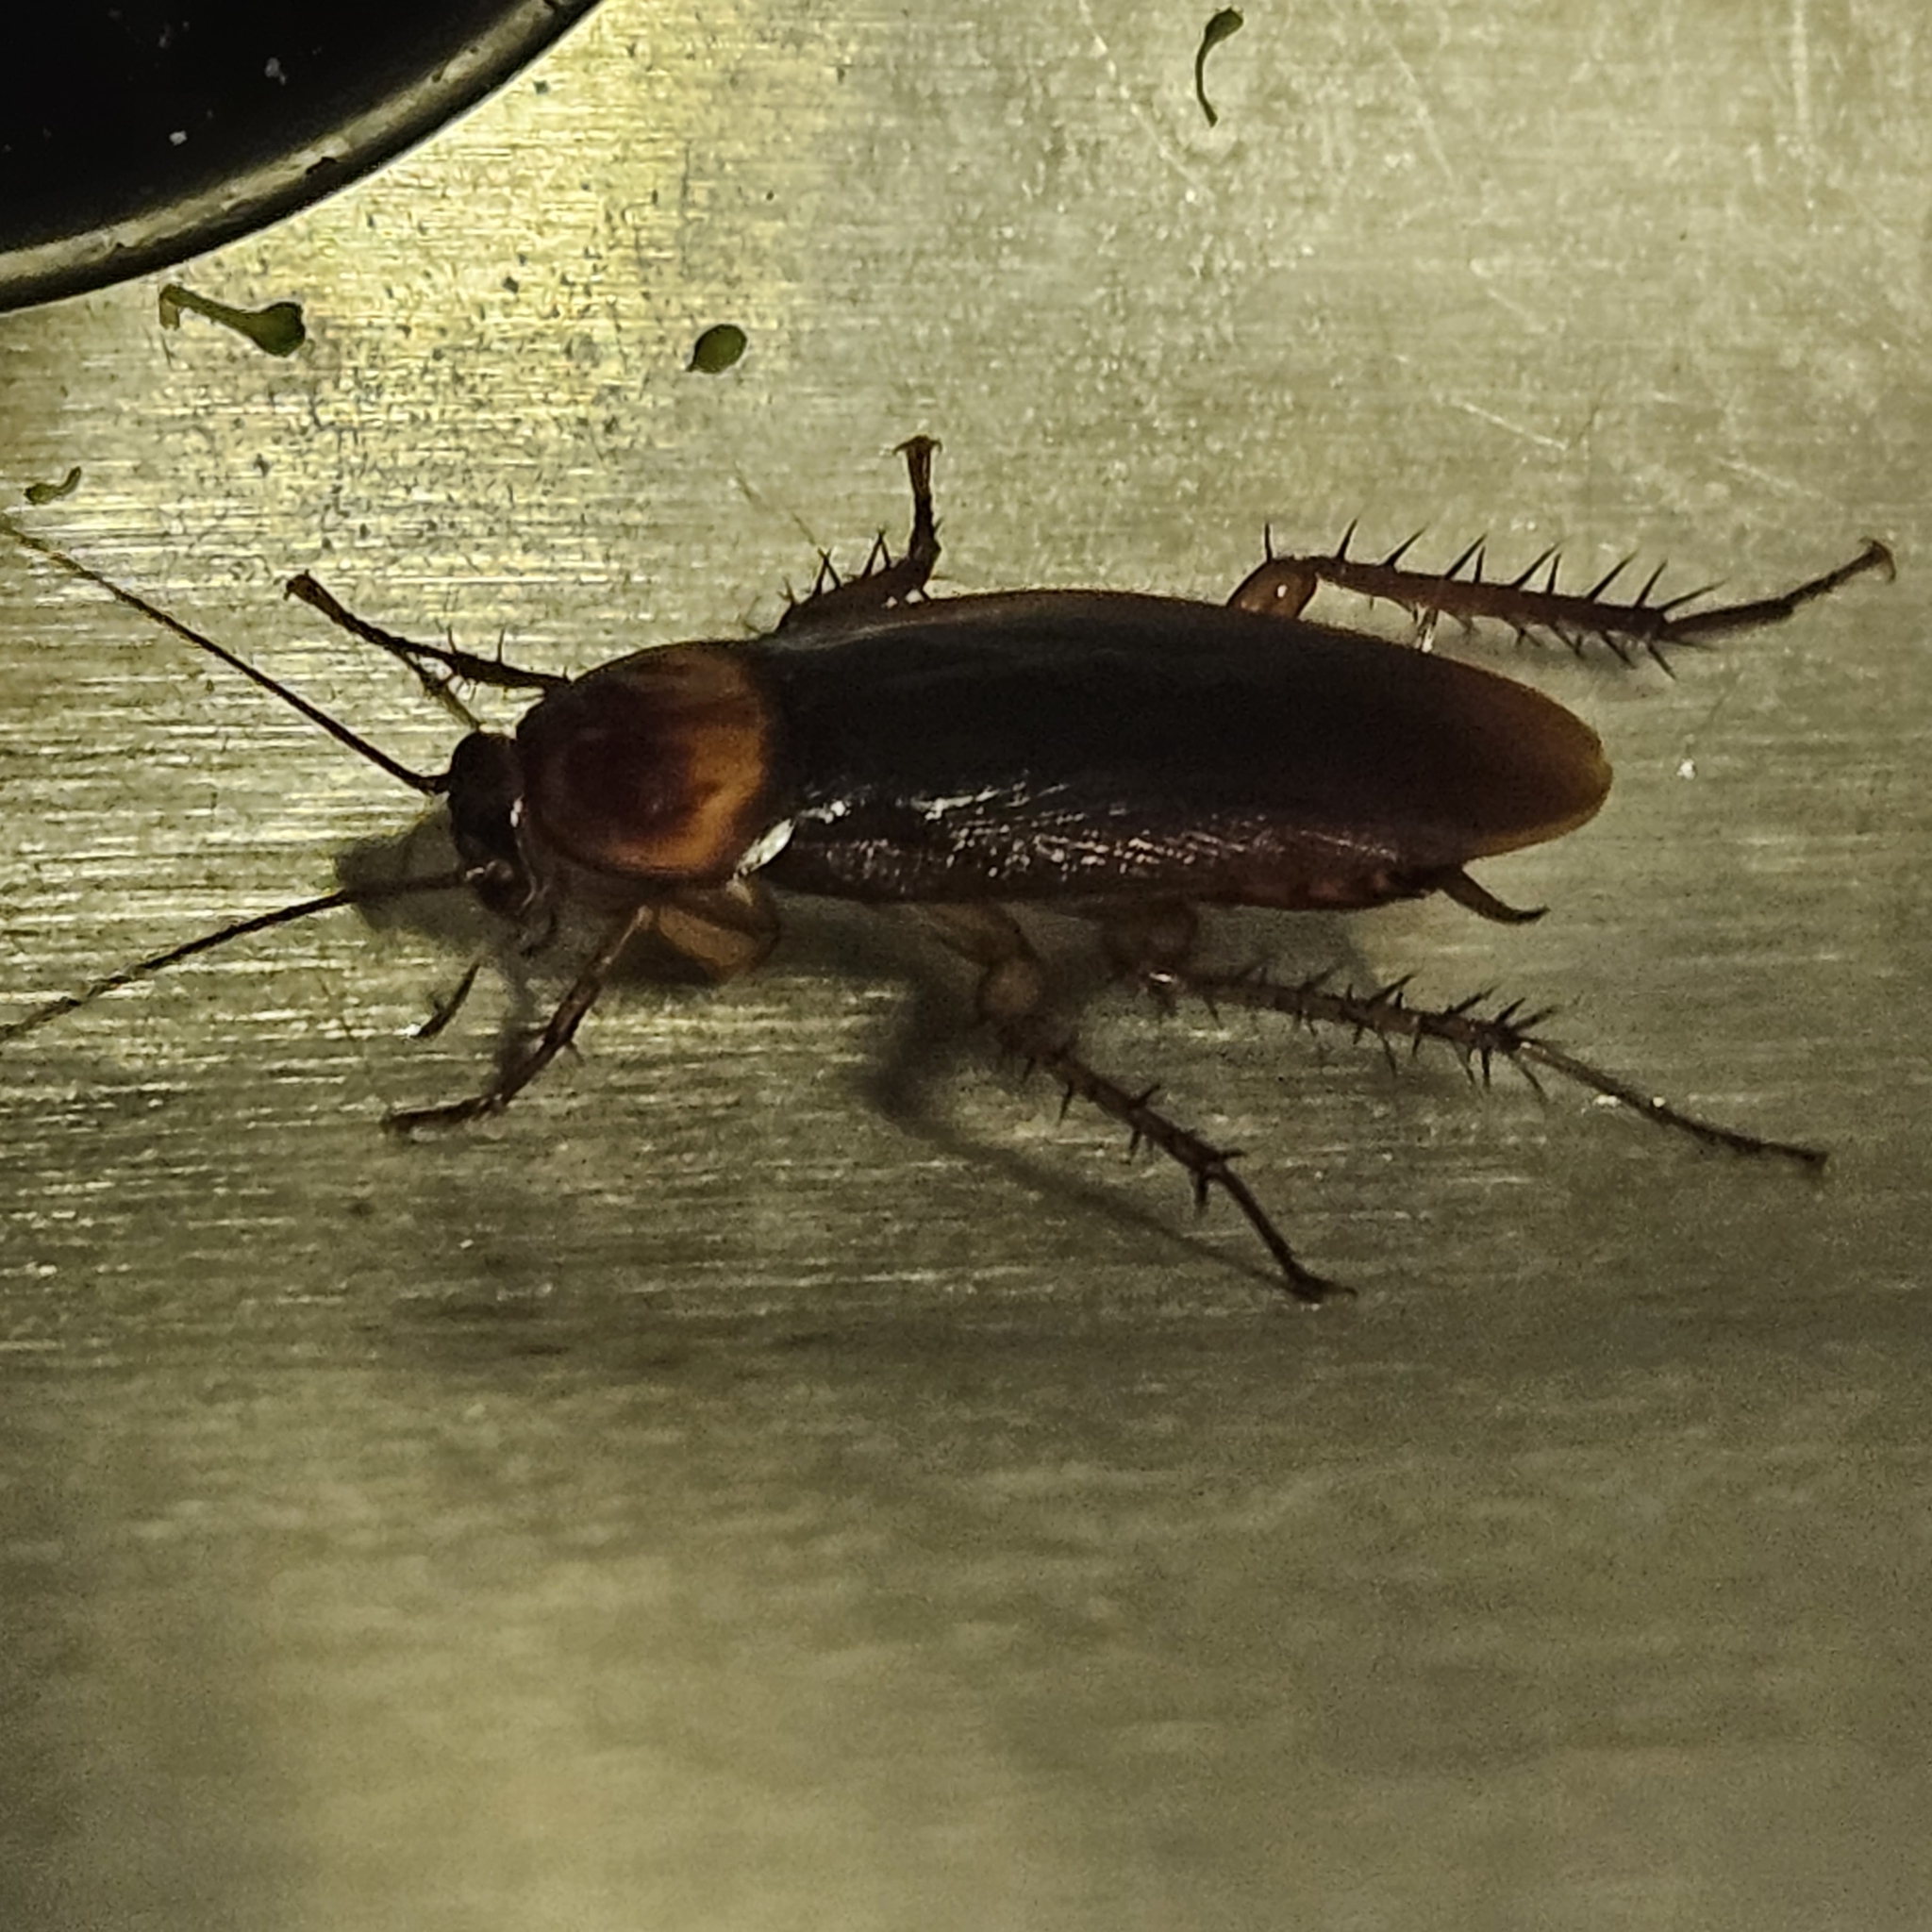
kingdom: Animalia
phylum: Arthropoda
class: Insecta
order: Blattodea
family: Blattidae
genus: Periplaneta
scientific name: Periplaneta americana
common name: American cockroach
